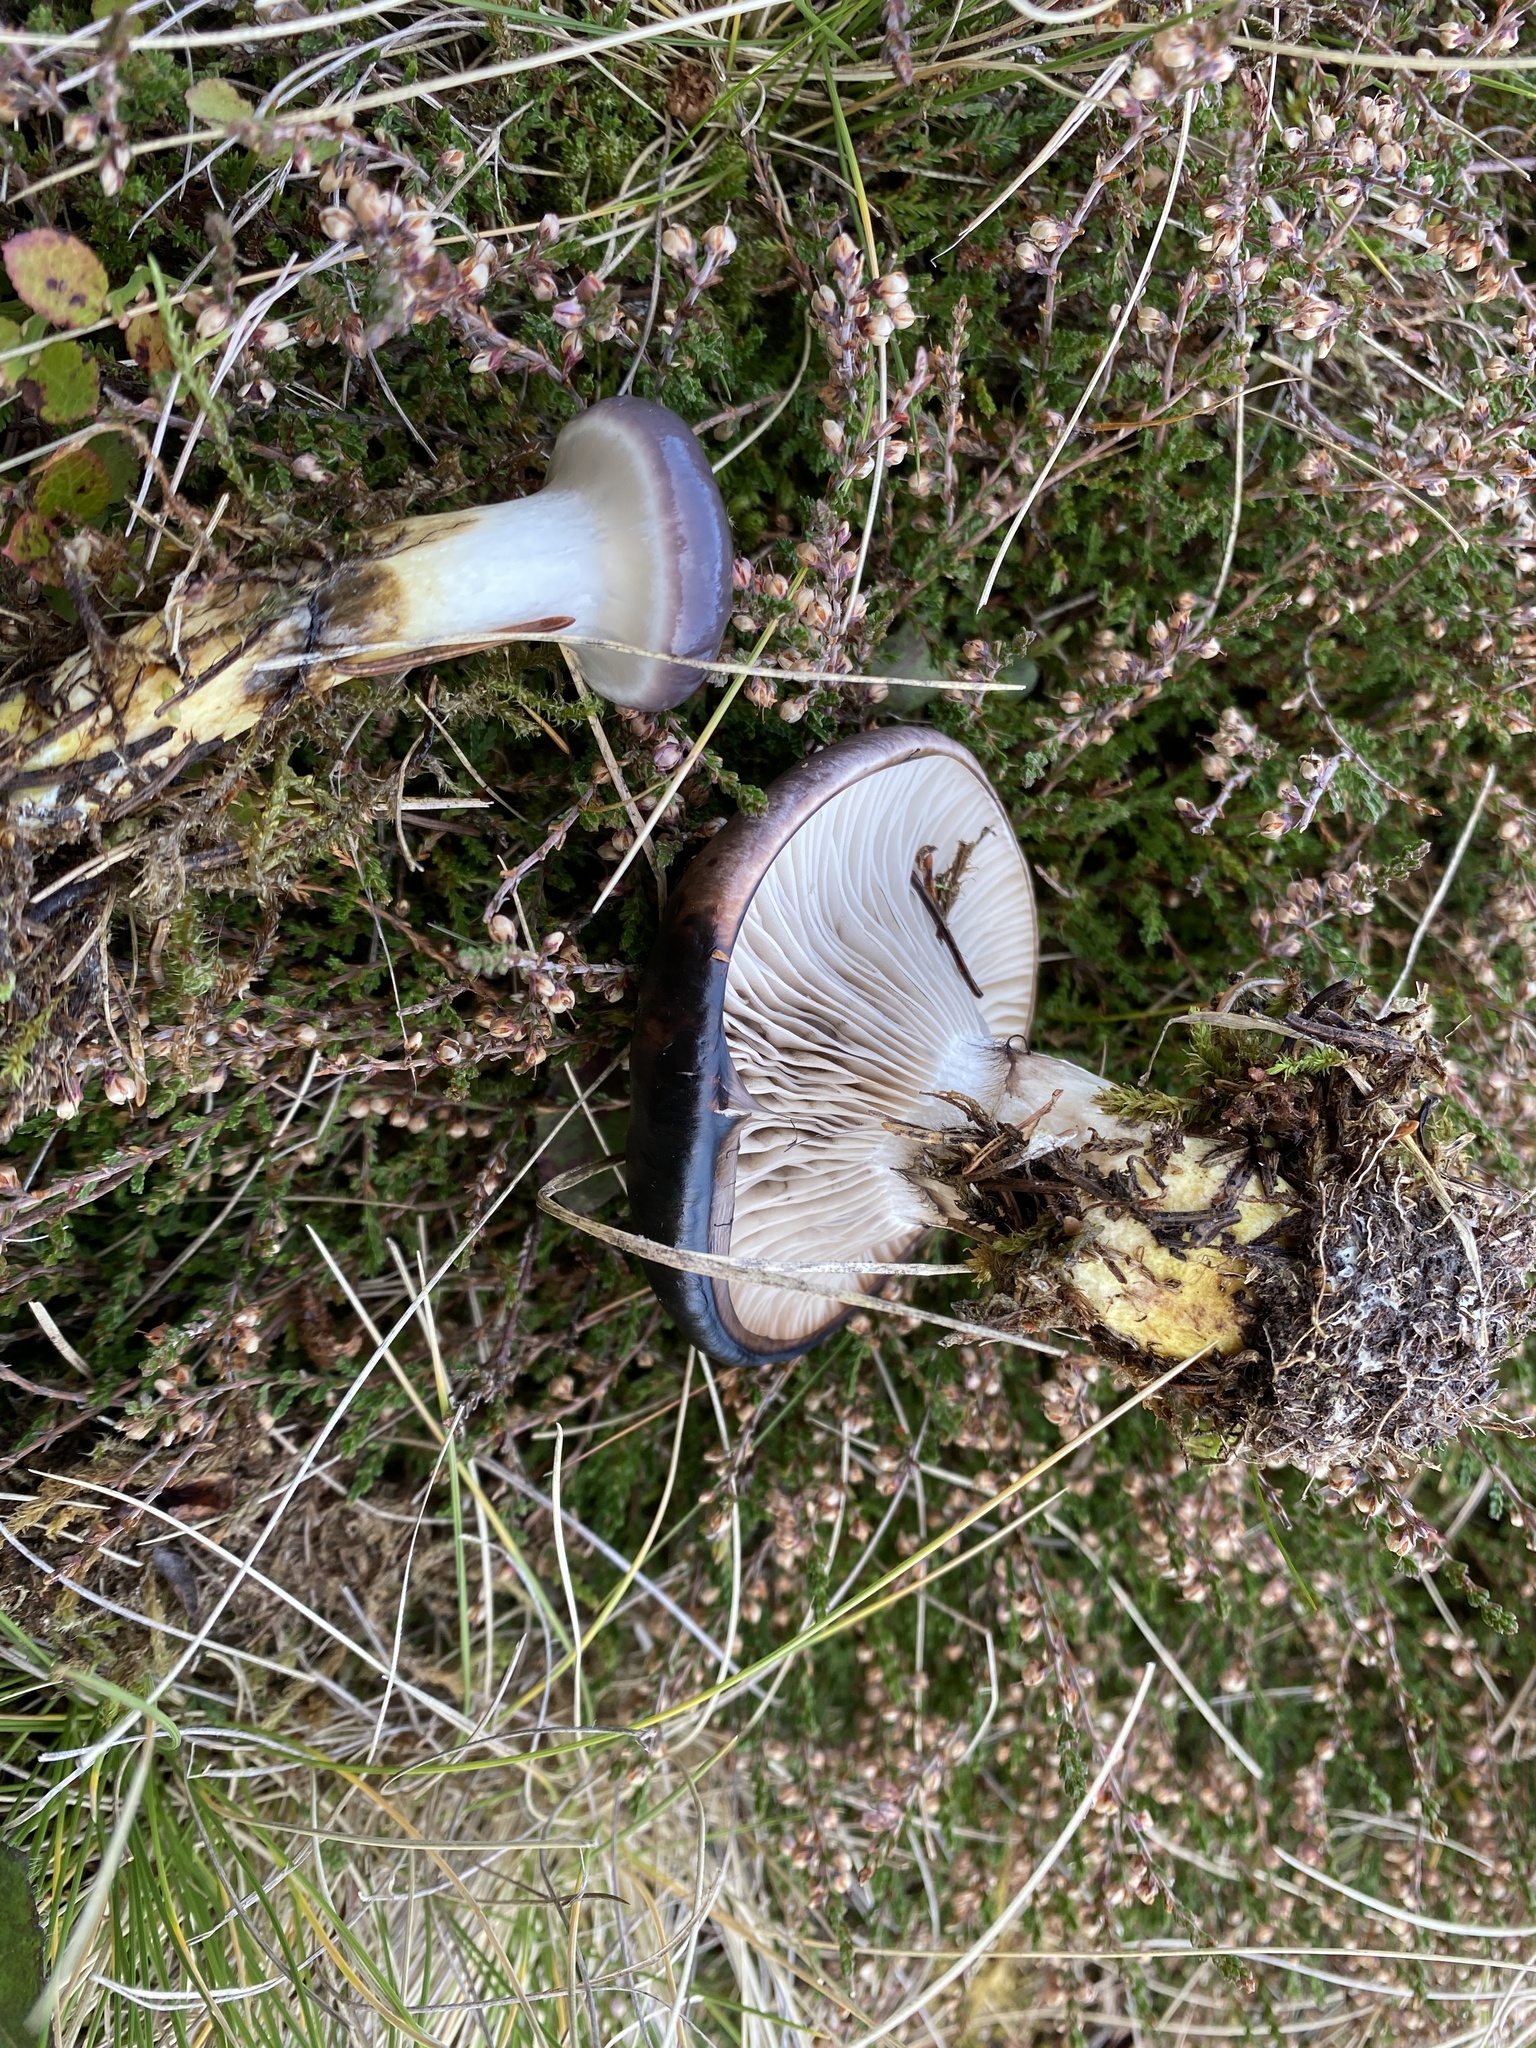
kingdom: Fungi
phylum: Basidiomycota
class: Agaricomycetes
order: Boletales
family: Gomphidiaceae
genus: Gomphidius
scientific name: Gomphidius glutinosus
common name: Slimy spike
